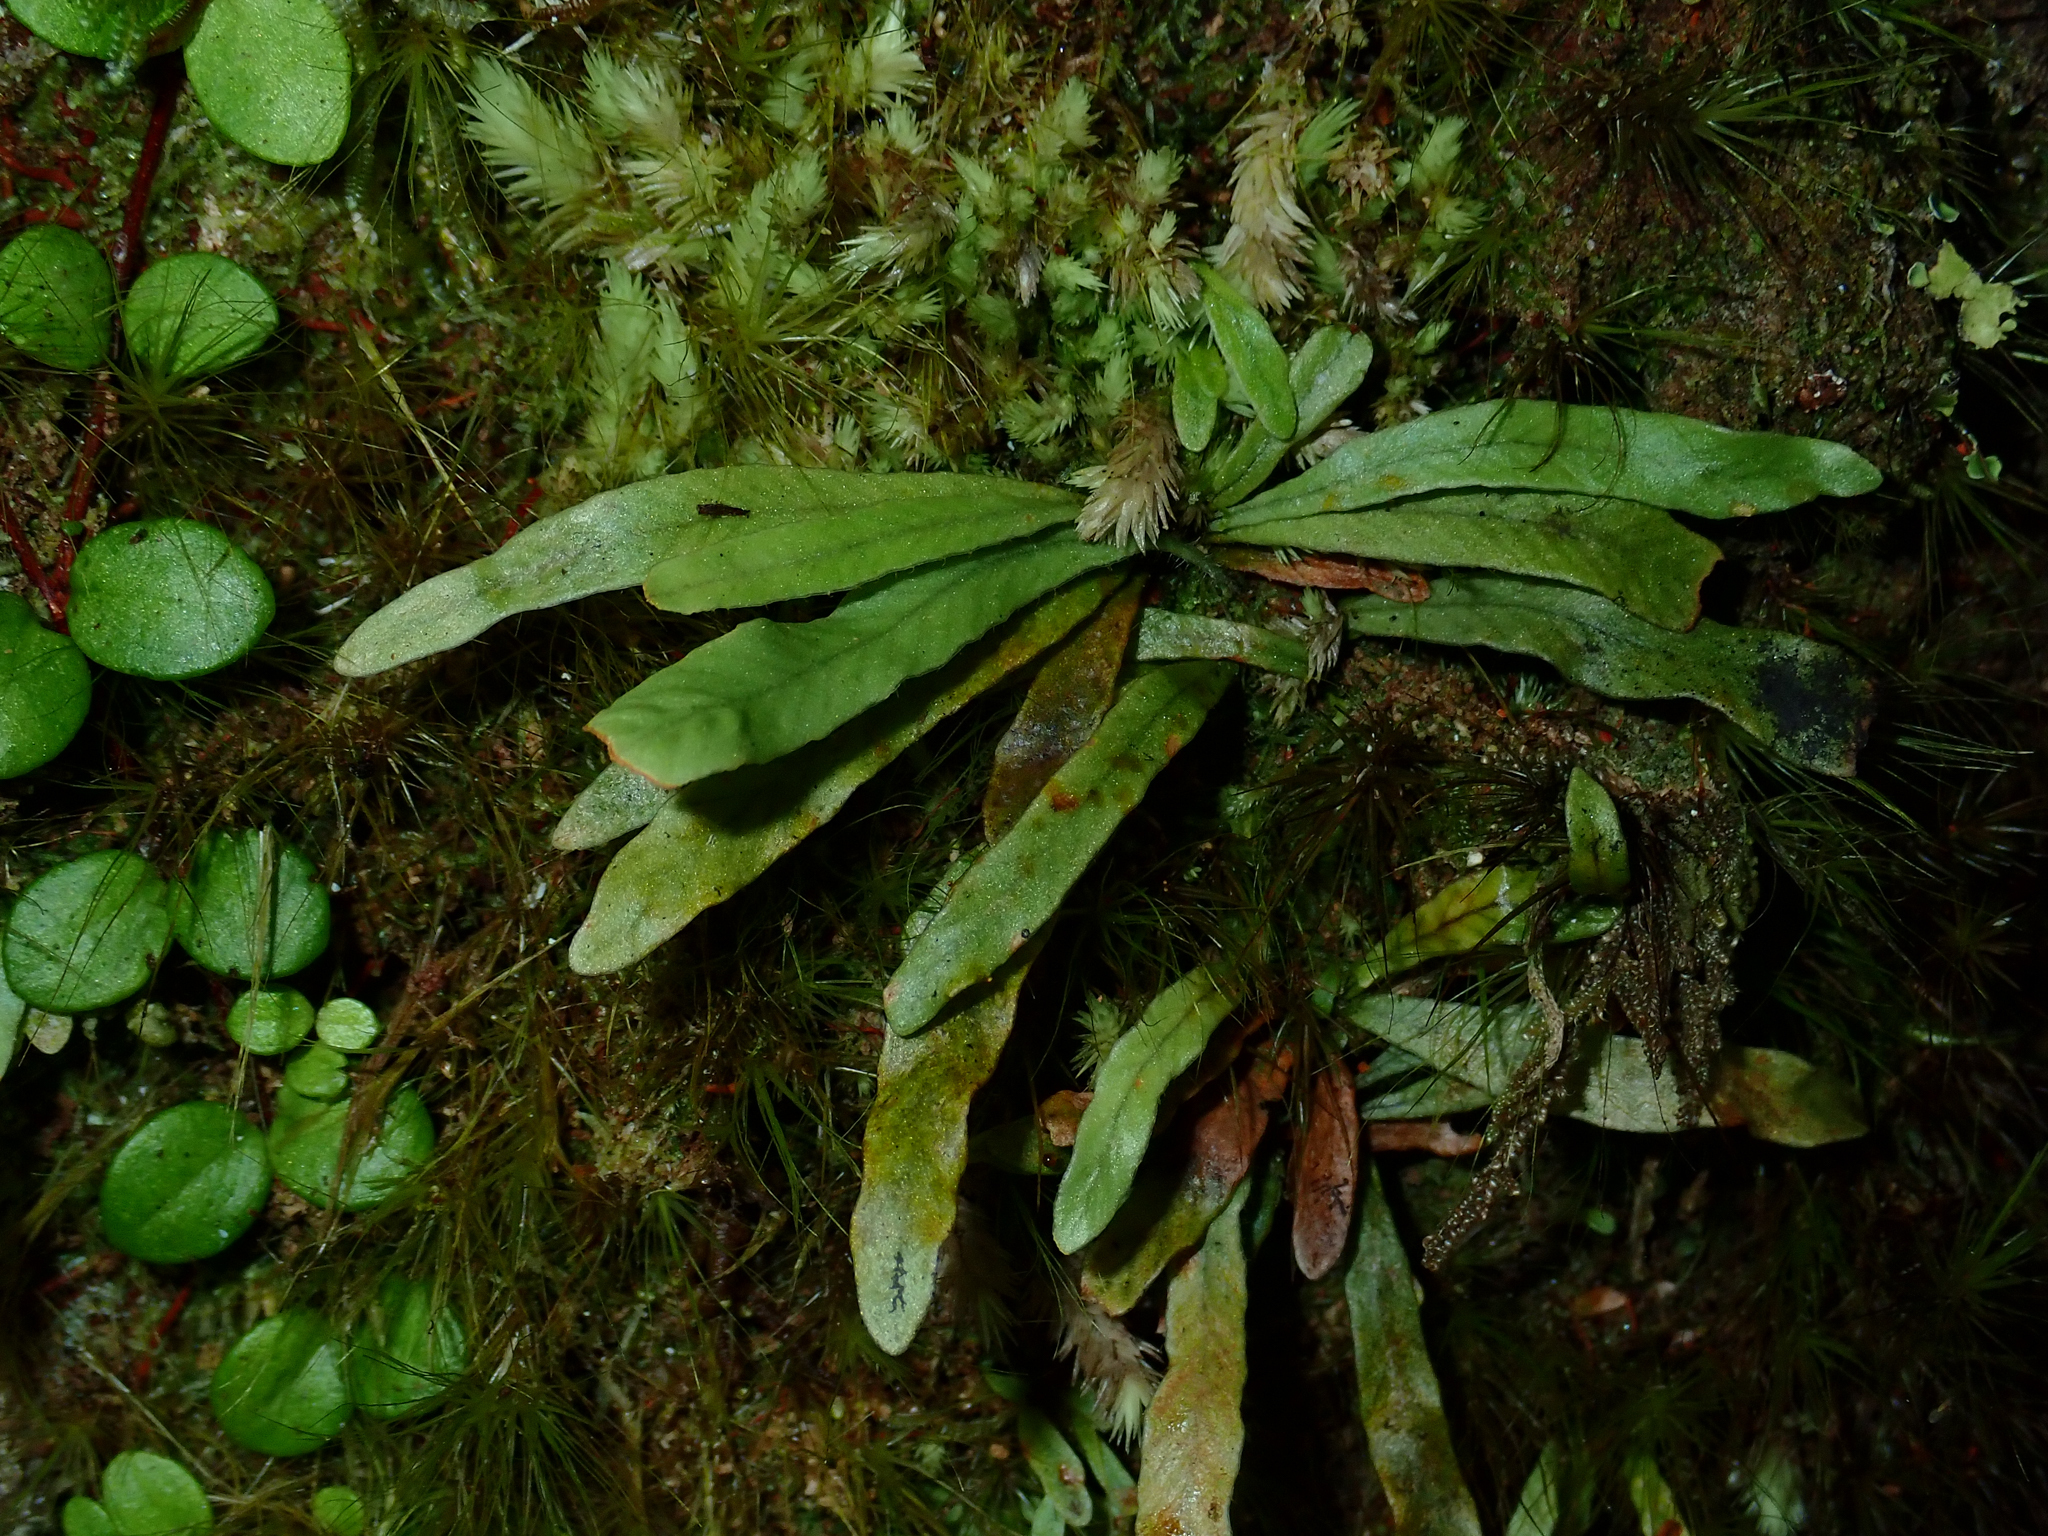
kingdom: Plantae
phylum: Tracheophyta
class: Polypodiopsida
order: Polypodiales
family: Polypodiaceae
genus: Notogrammitis
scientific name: Notogrammitis billardierei
